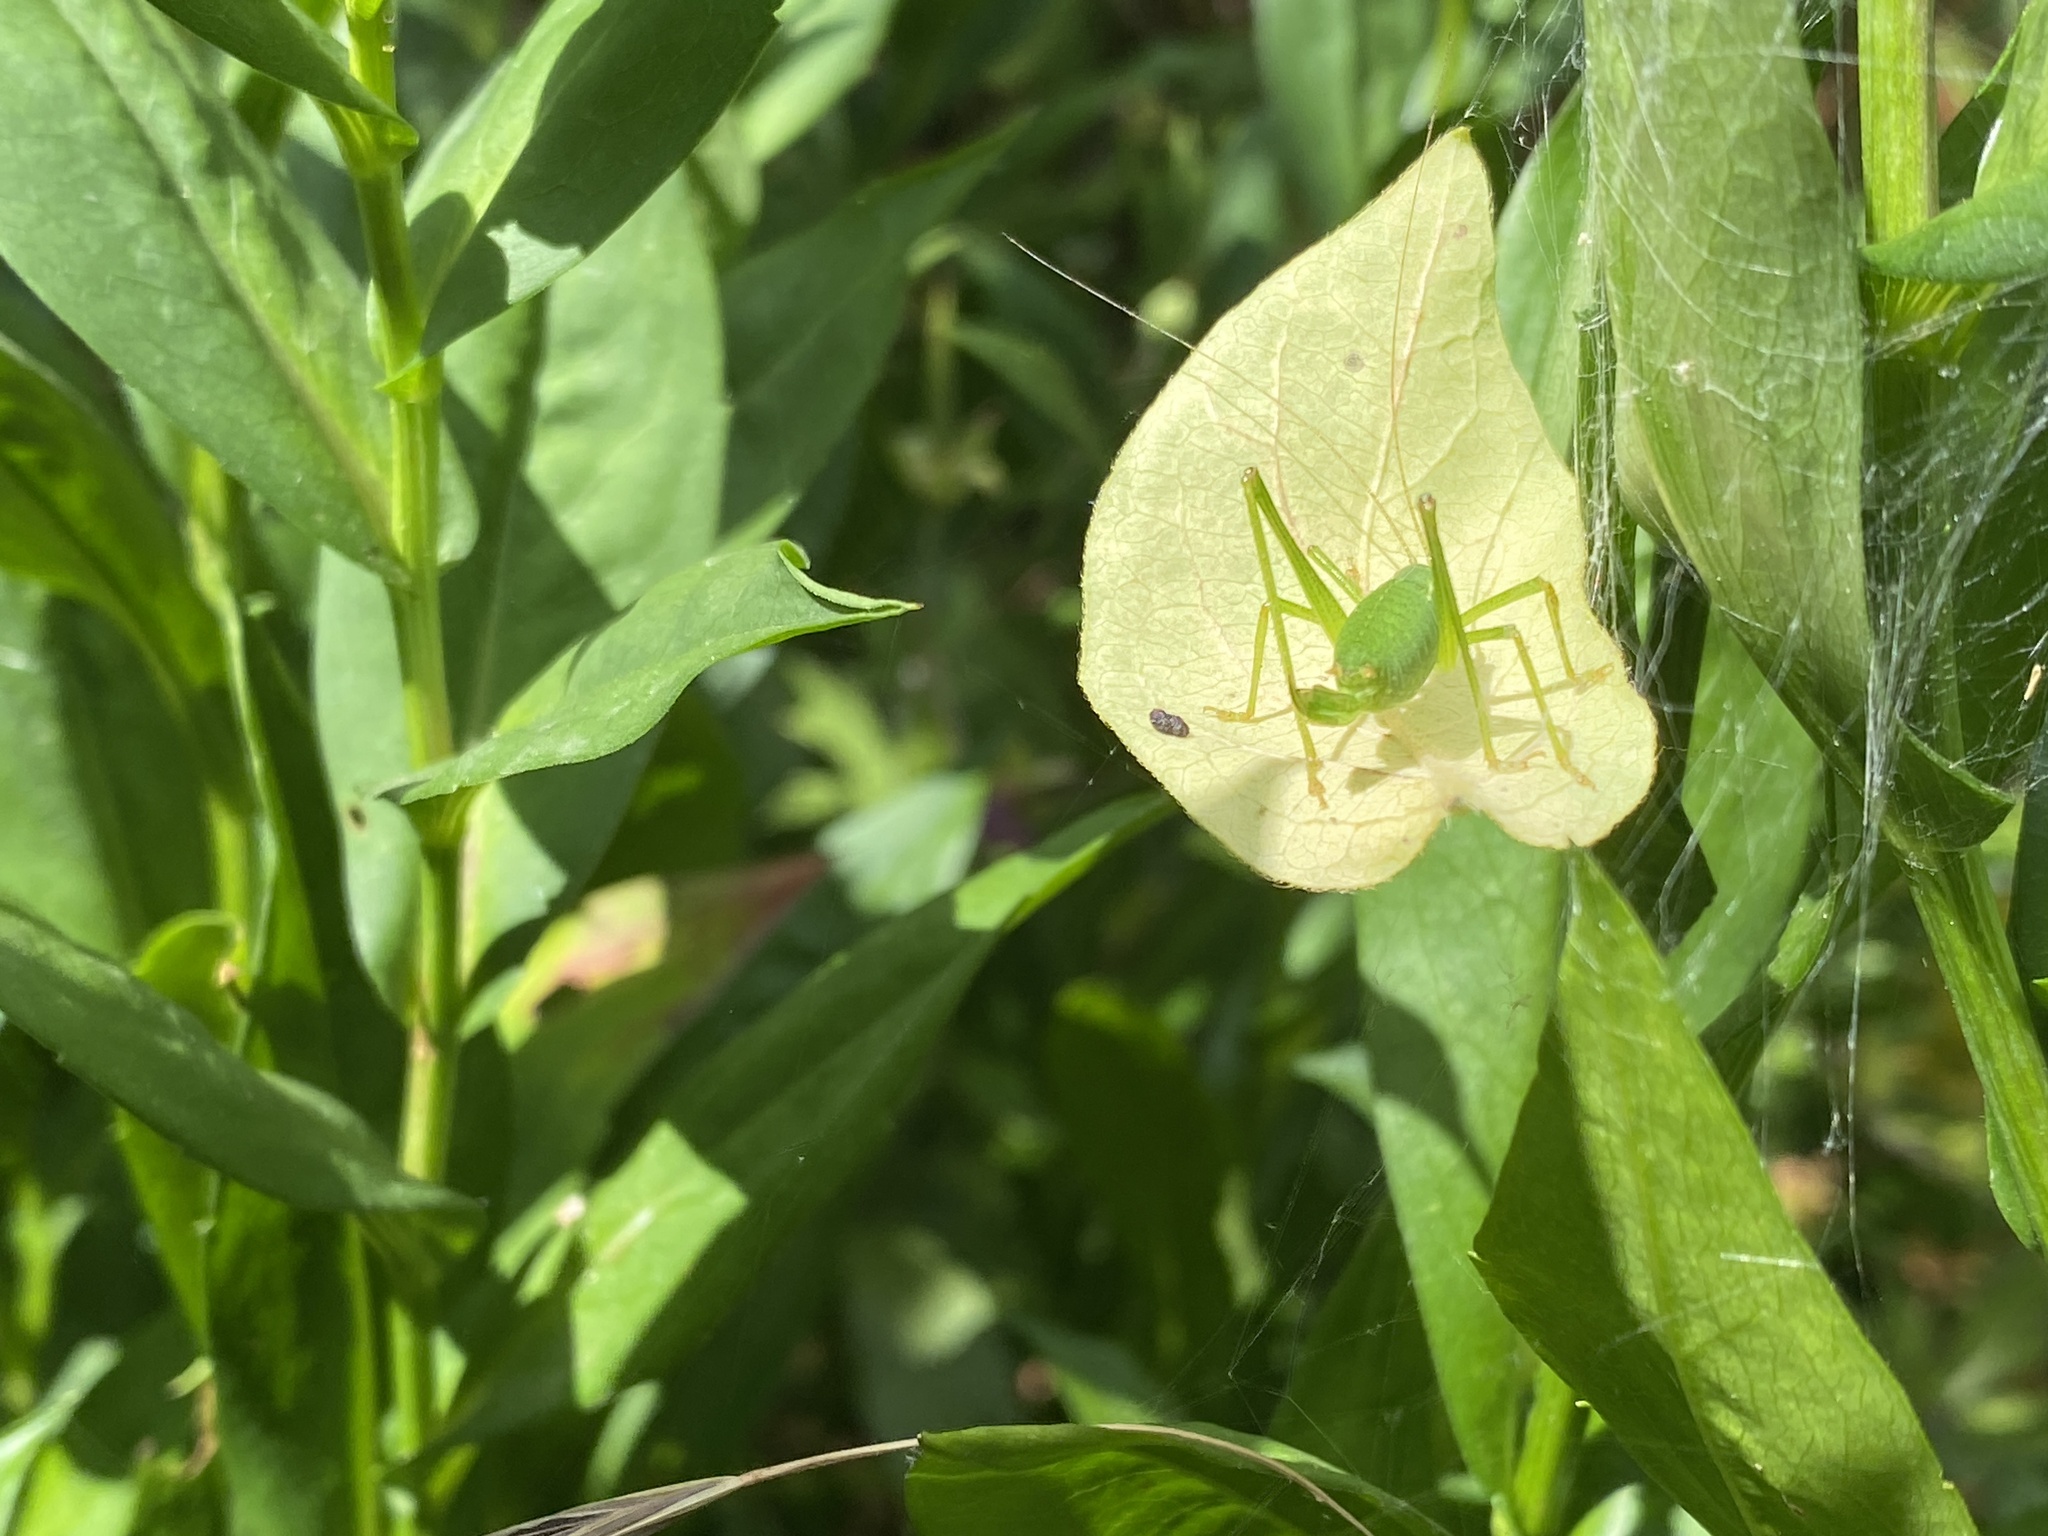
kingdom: Animalia
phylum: Arthropoda
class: Insecta
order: Orthoptera
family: Tettigoniidae
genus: Leptophyes
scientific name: Leptophyes punctatissima
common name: Speckled bush-cricket
